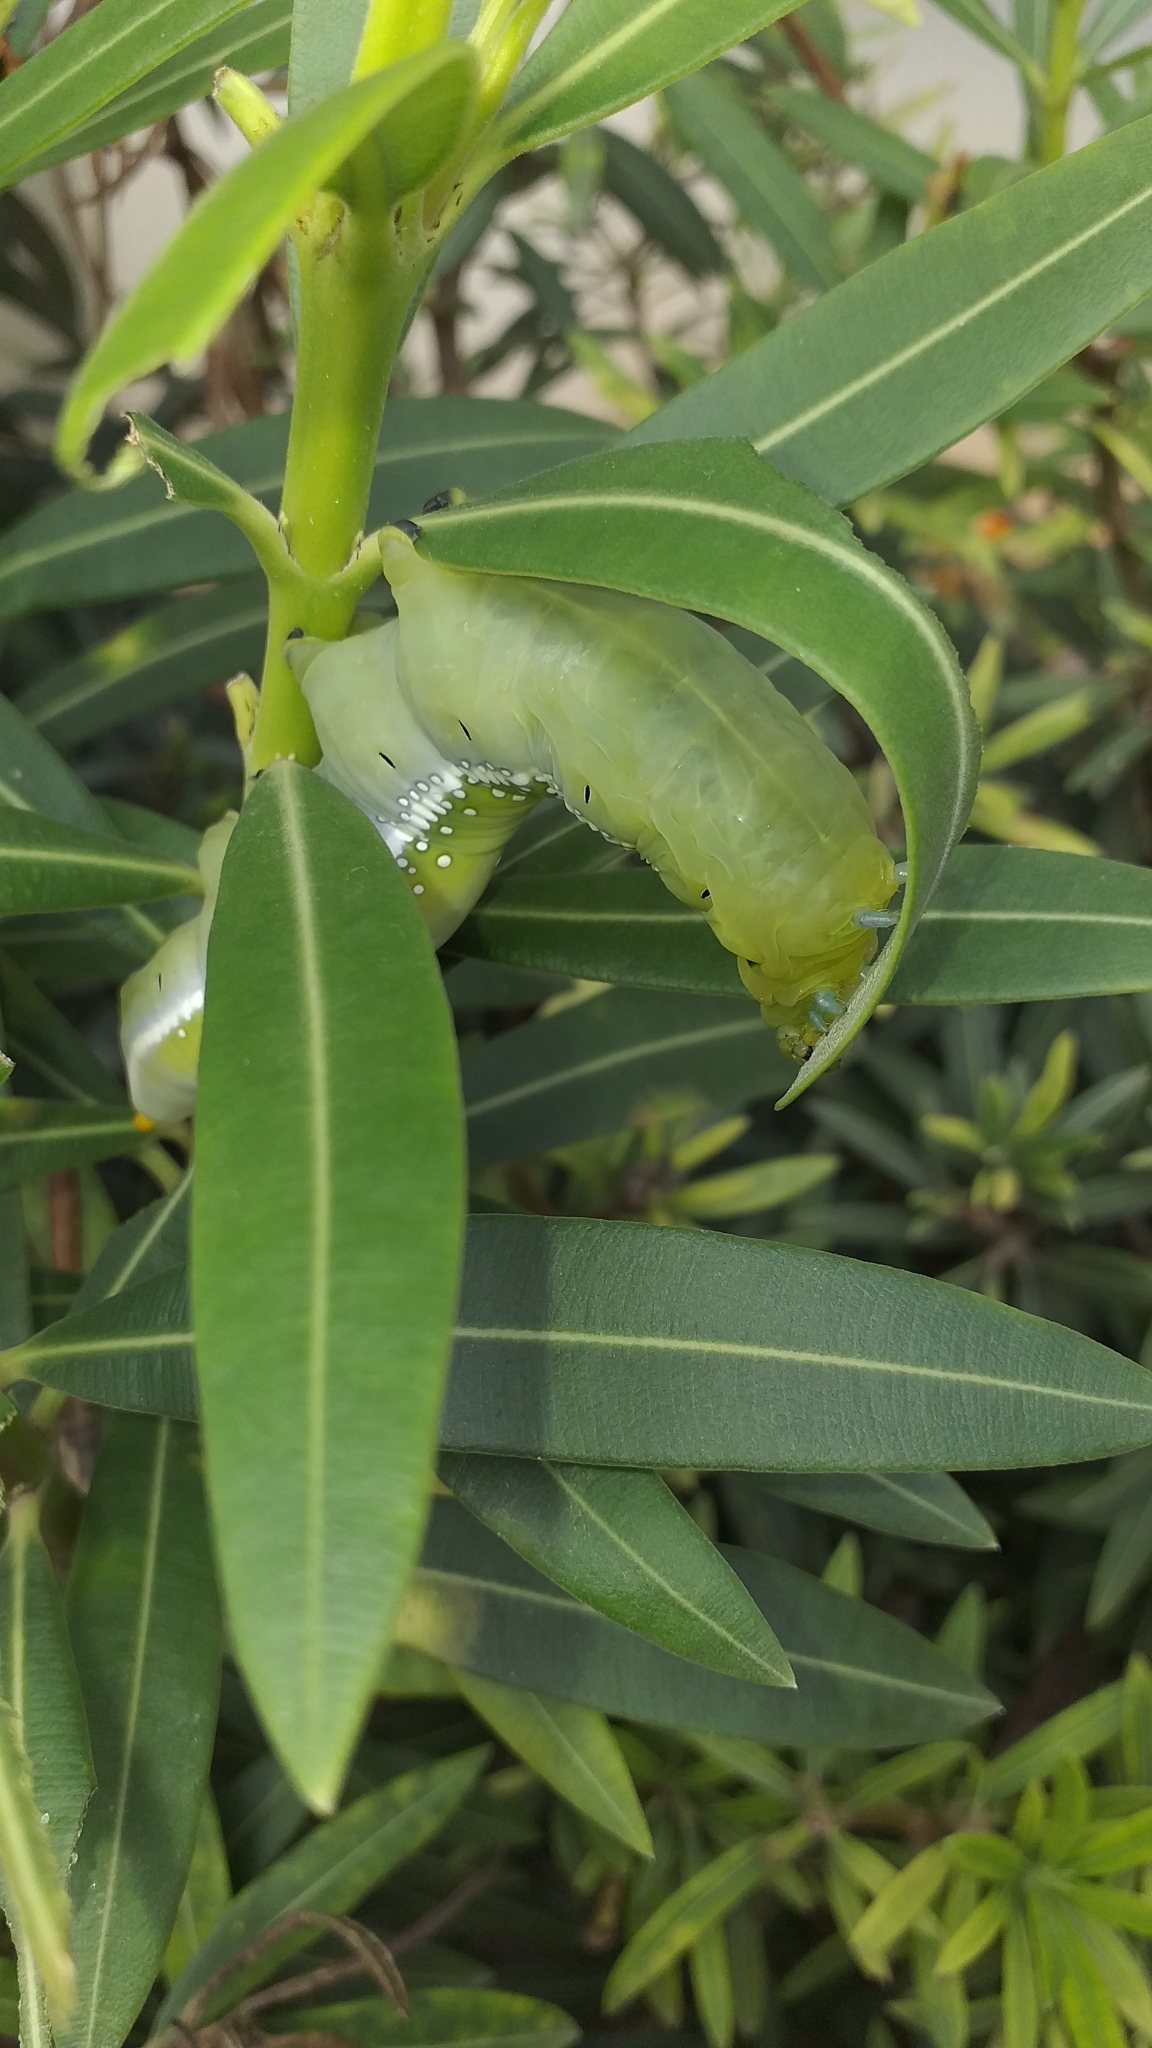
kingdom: Animalia
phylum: Arthropoda
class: Insecta
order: Lepidoptera
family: Sphingidae
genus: Daphnis
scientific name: Daphnis nerii
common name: Oleander hawk-moth
